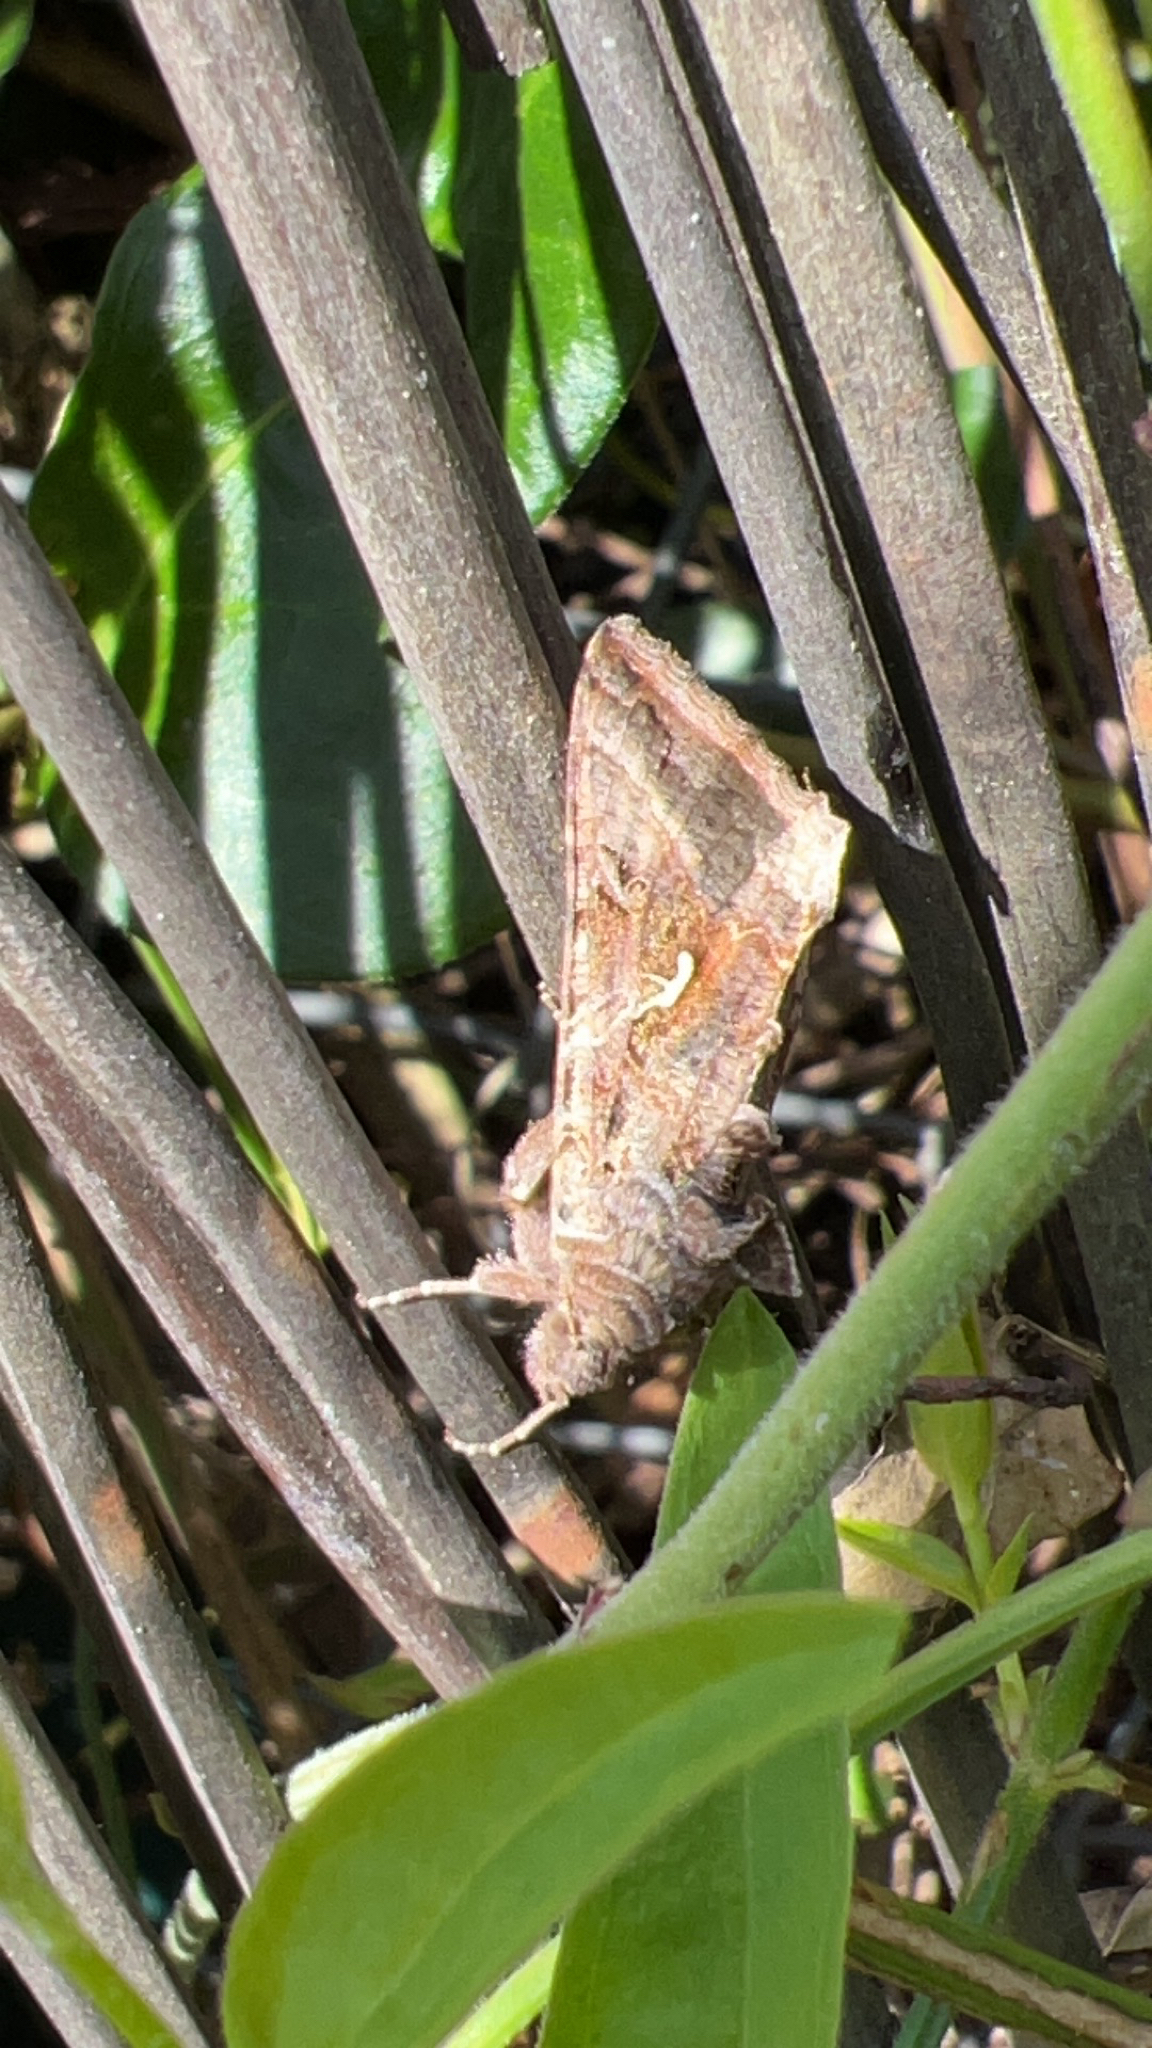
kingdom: Animalia
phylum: Arthropoda
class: Insecta
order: Lepidoptera
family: Noctuidae
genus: Autographa
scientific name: Autographa gamma
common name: Silver y
